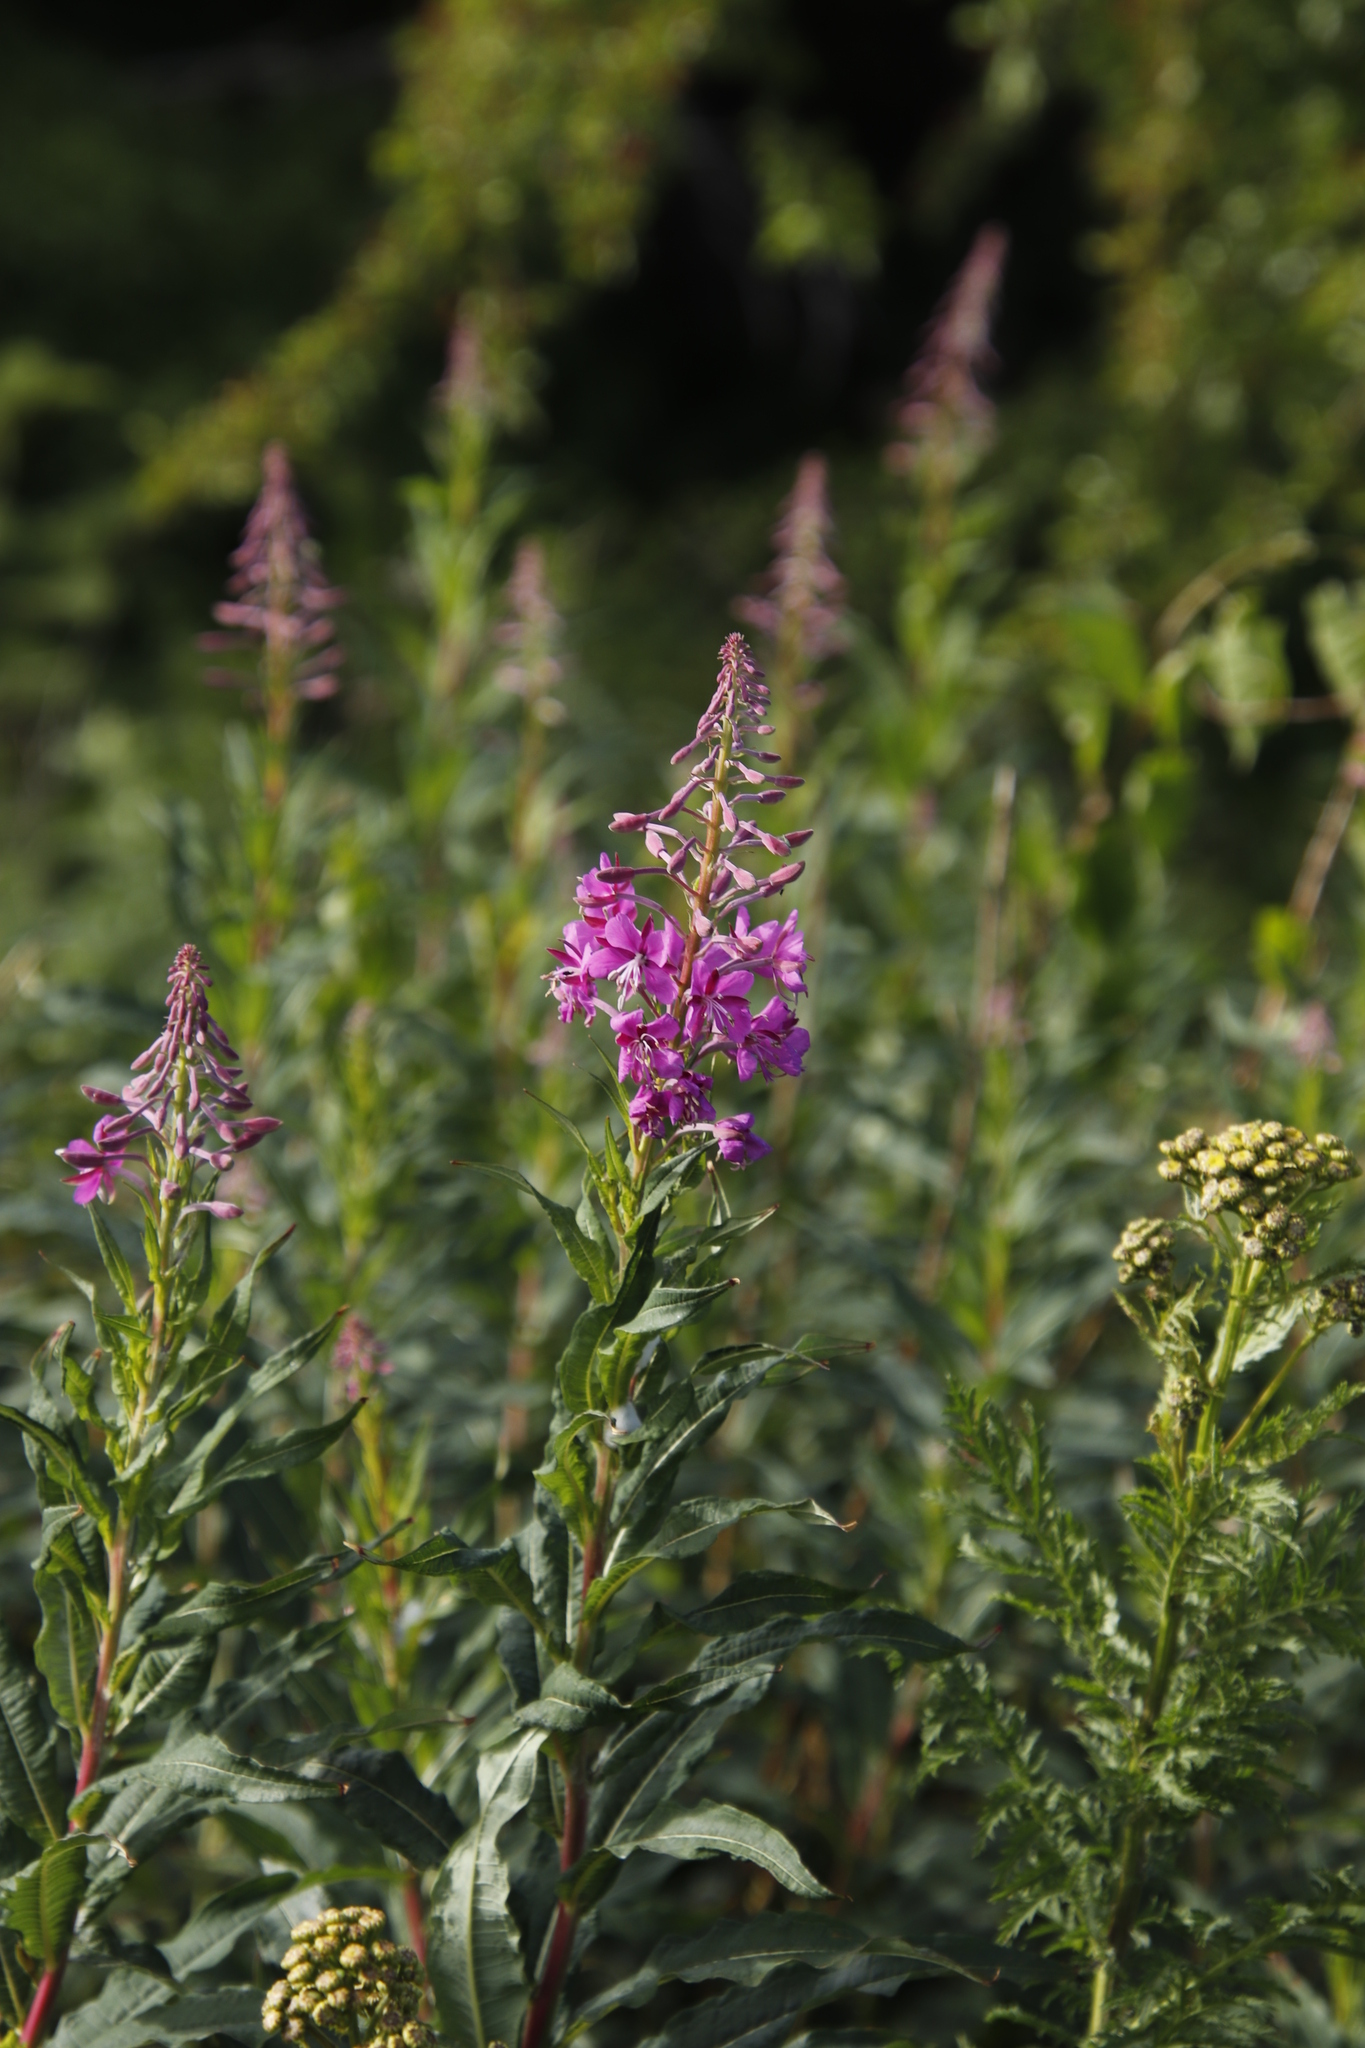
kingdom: Plantae
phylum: Tracheophyta
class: Magnoliopsida
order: Myrtales
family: Onagraceae
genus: Chamaenerion
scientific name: Chamaenerion angustifolium
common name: Fireweed
